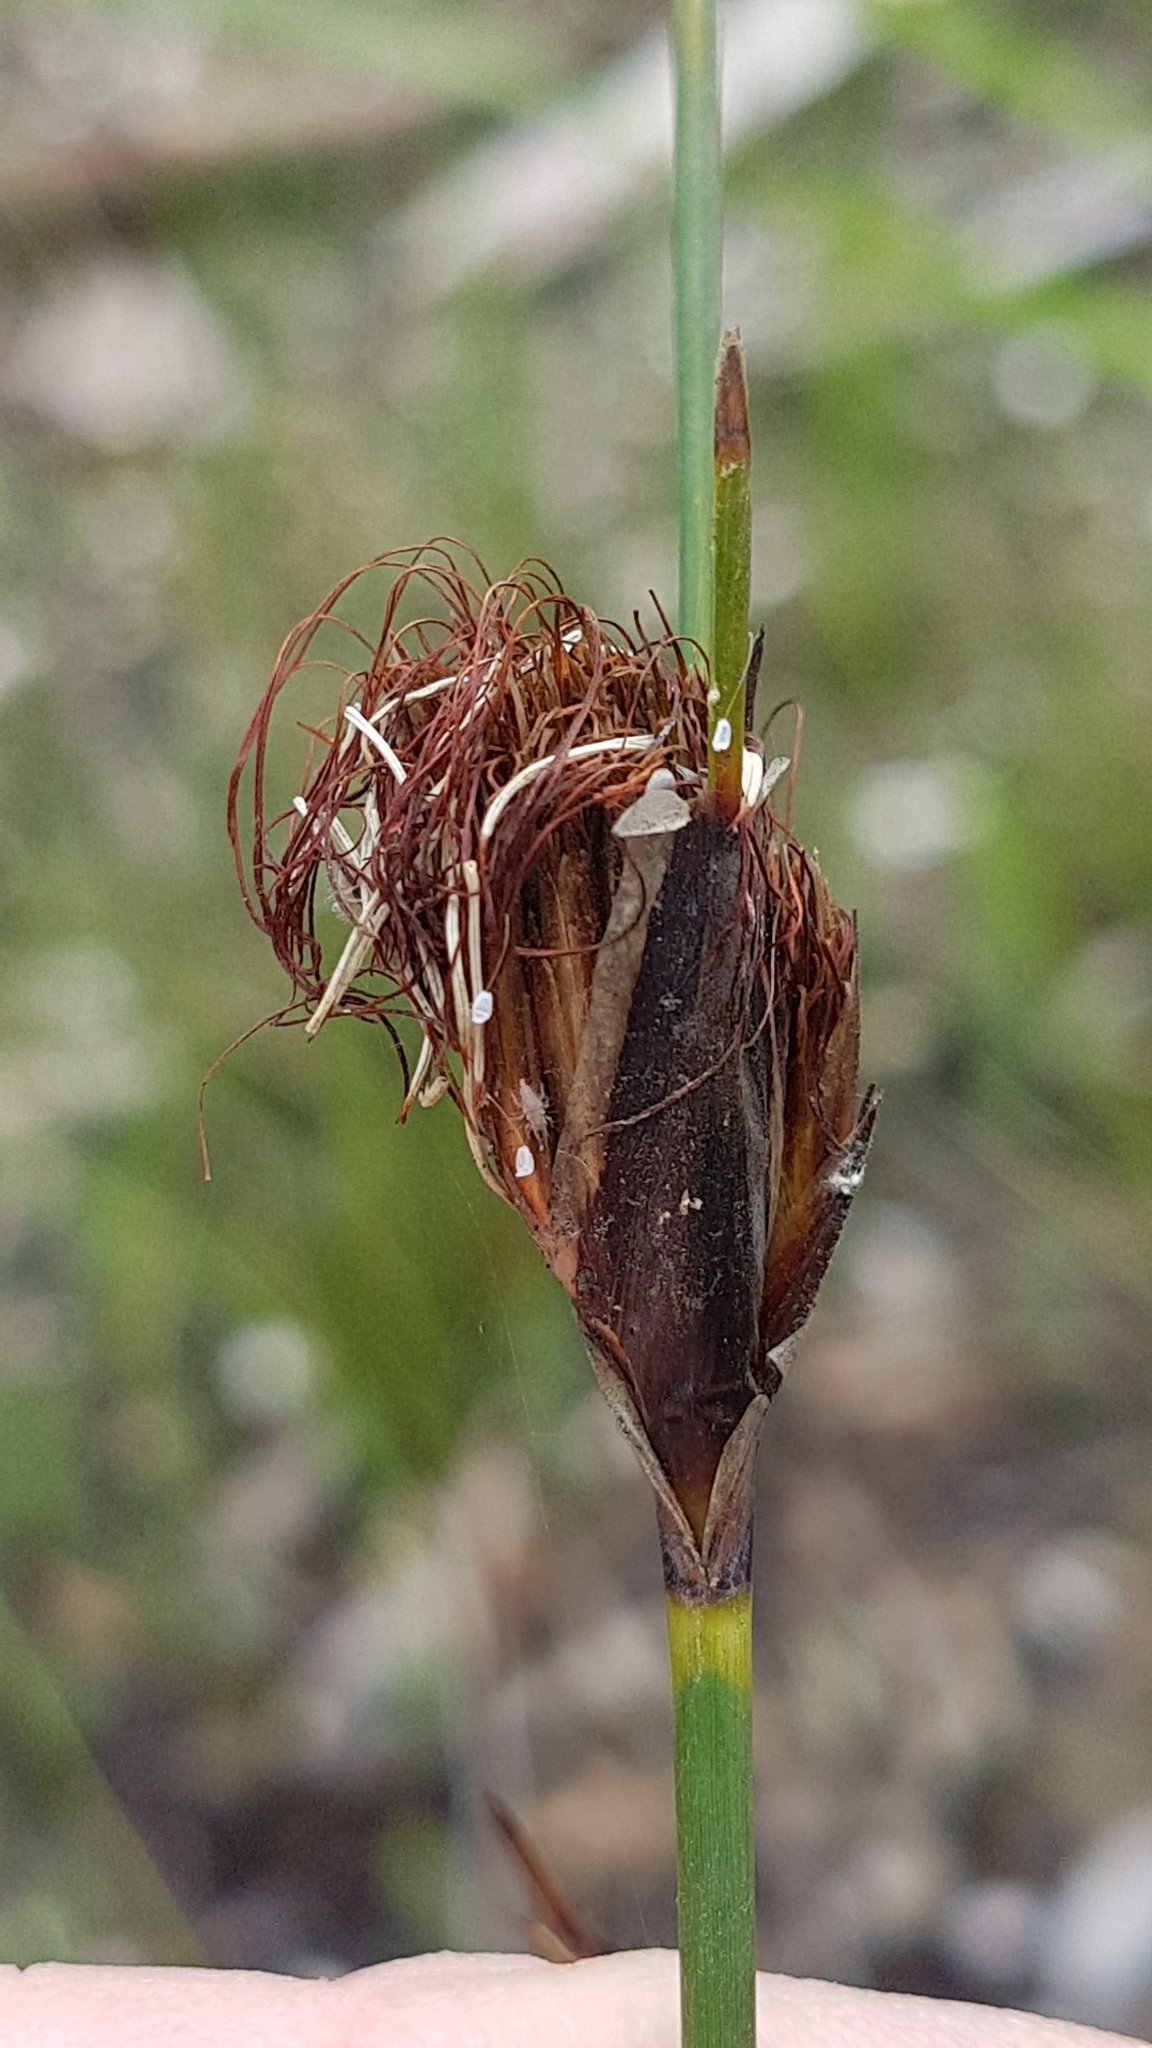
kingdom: Plantae
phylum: Tracheophyta
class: Liliopsida
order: Poales
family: Cyperaceae
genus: Ptilothrix
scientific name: Ptilothrix deusta
